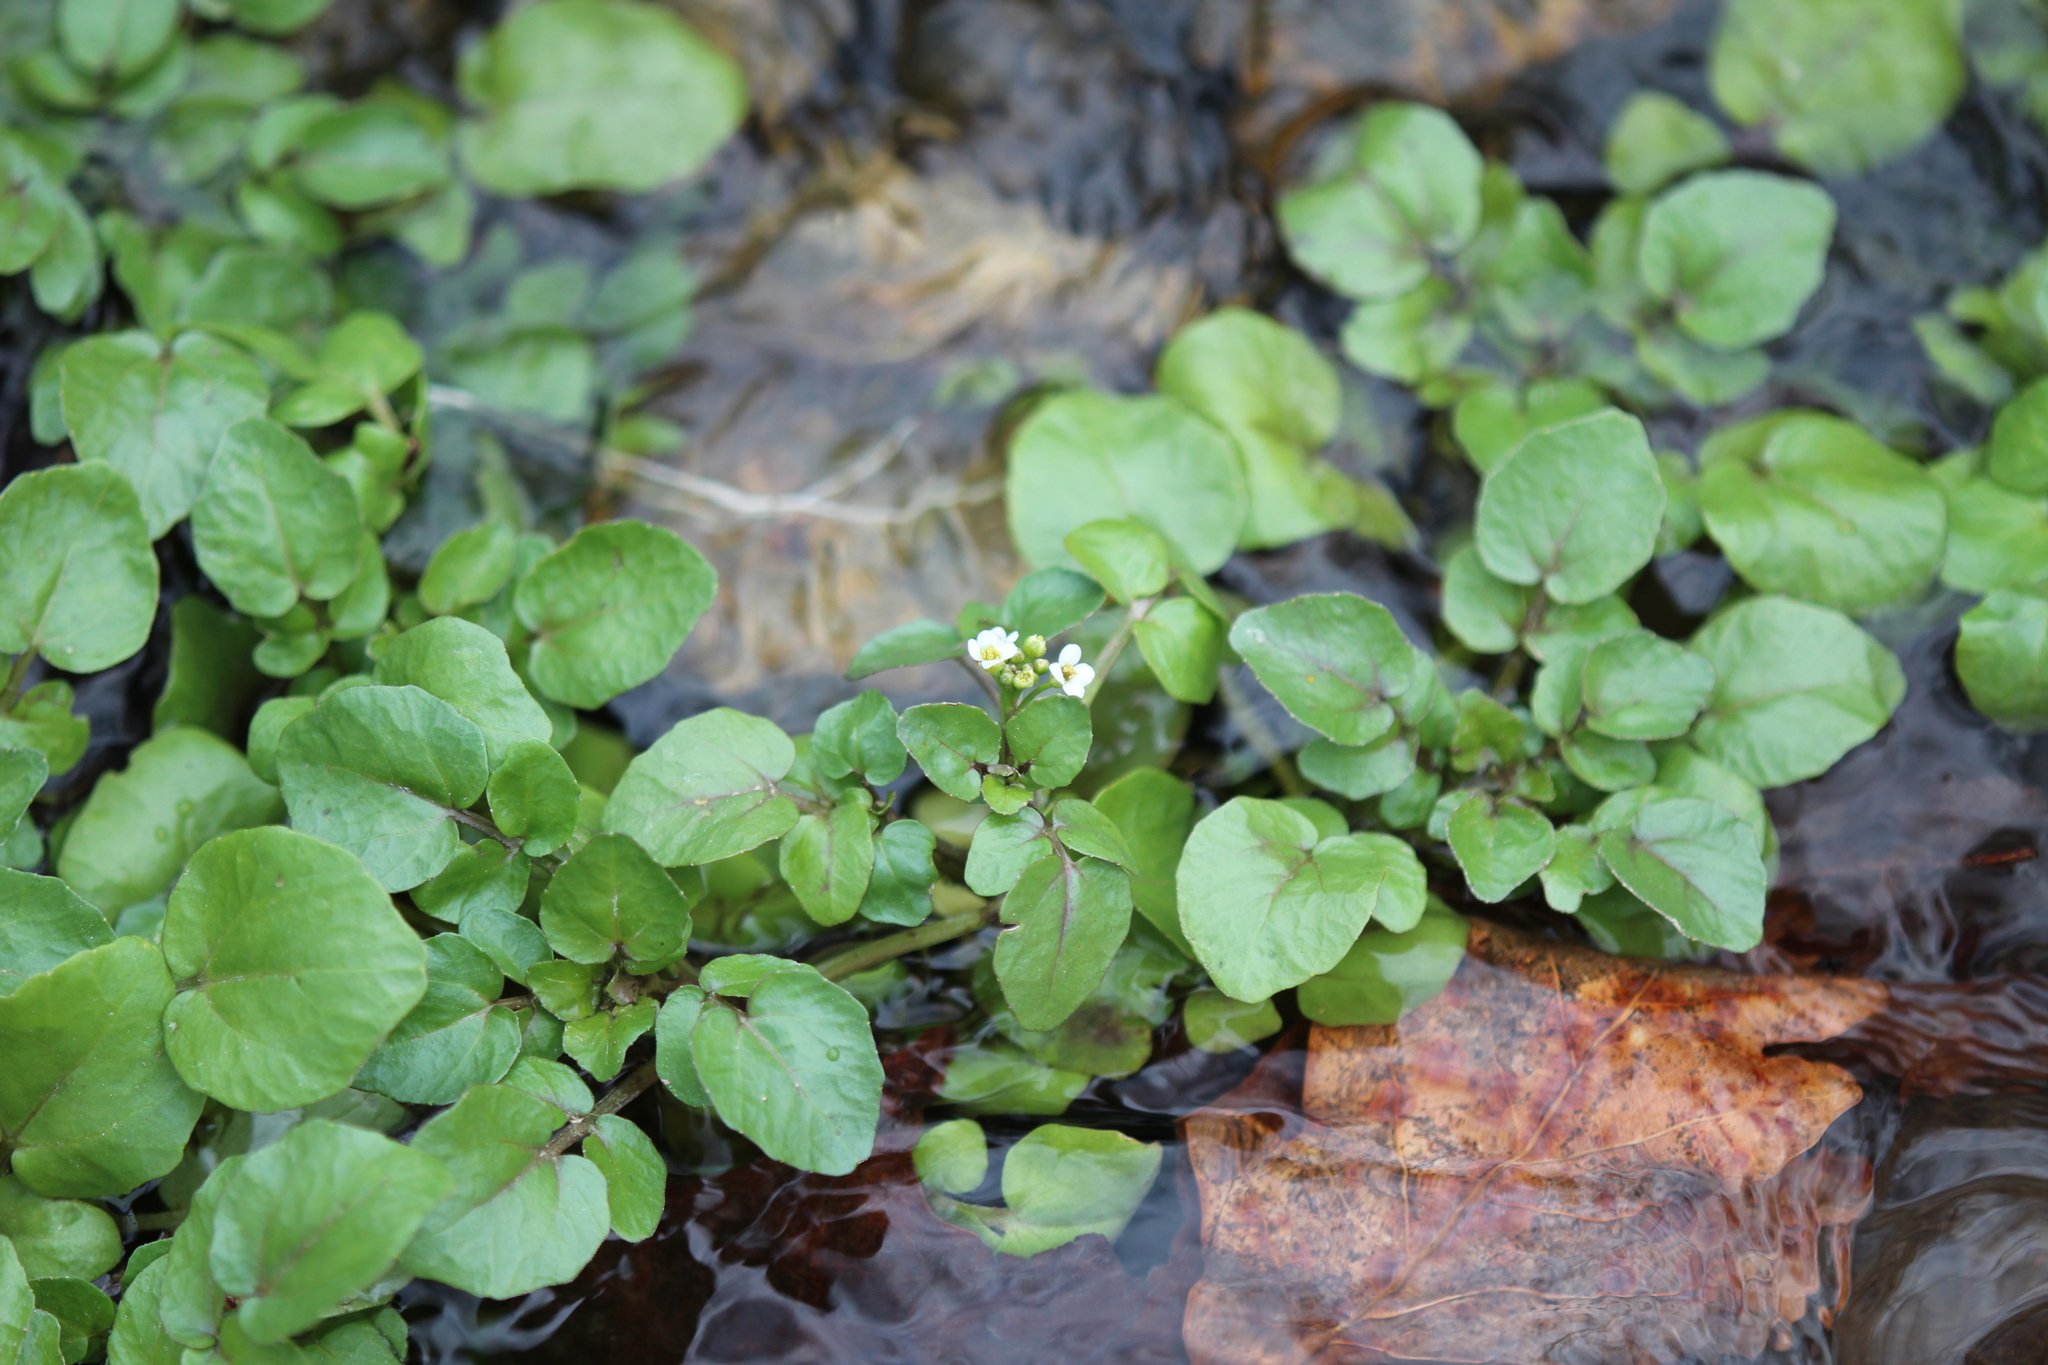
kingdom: Plantae
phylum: Tracheophyta
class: Magnoliopsida
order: Brassicales
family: Brassicaceae
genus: Nasturtium
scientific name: Nasturtium officinale
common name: Watercress
